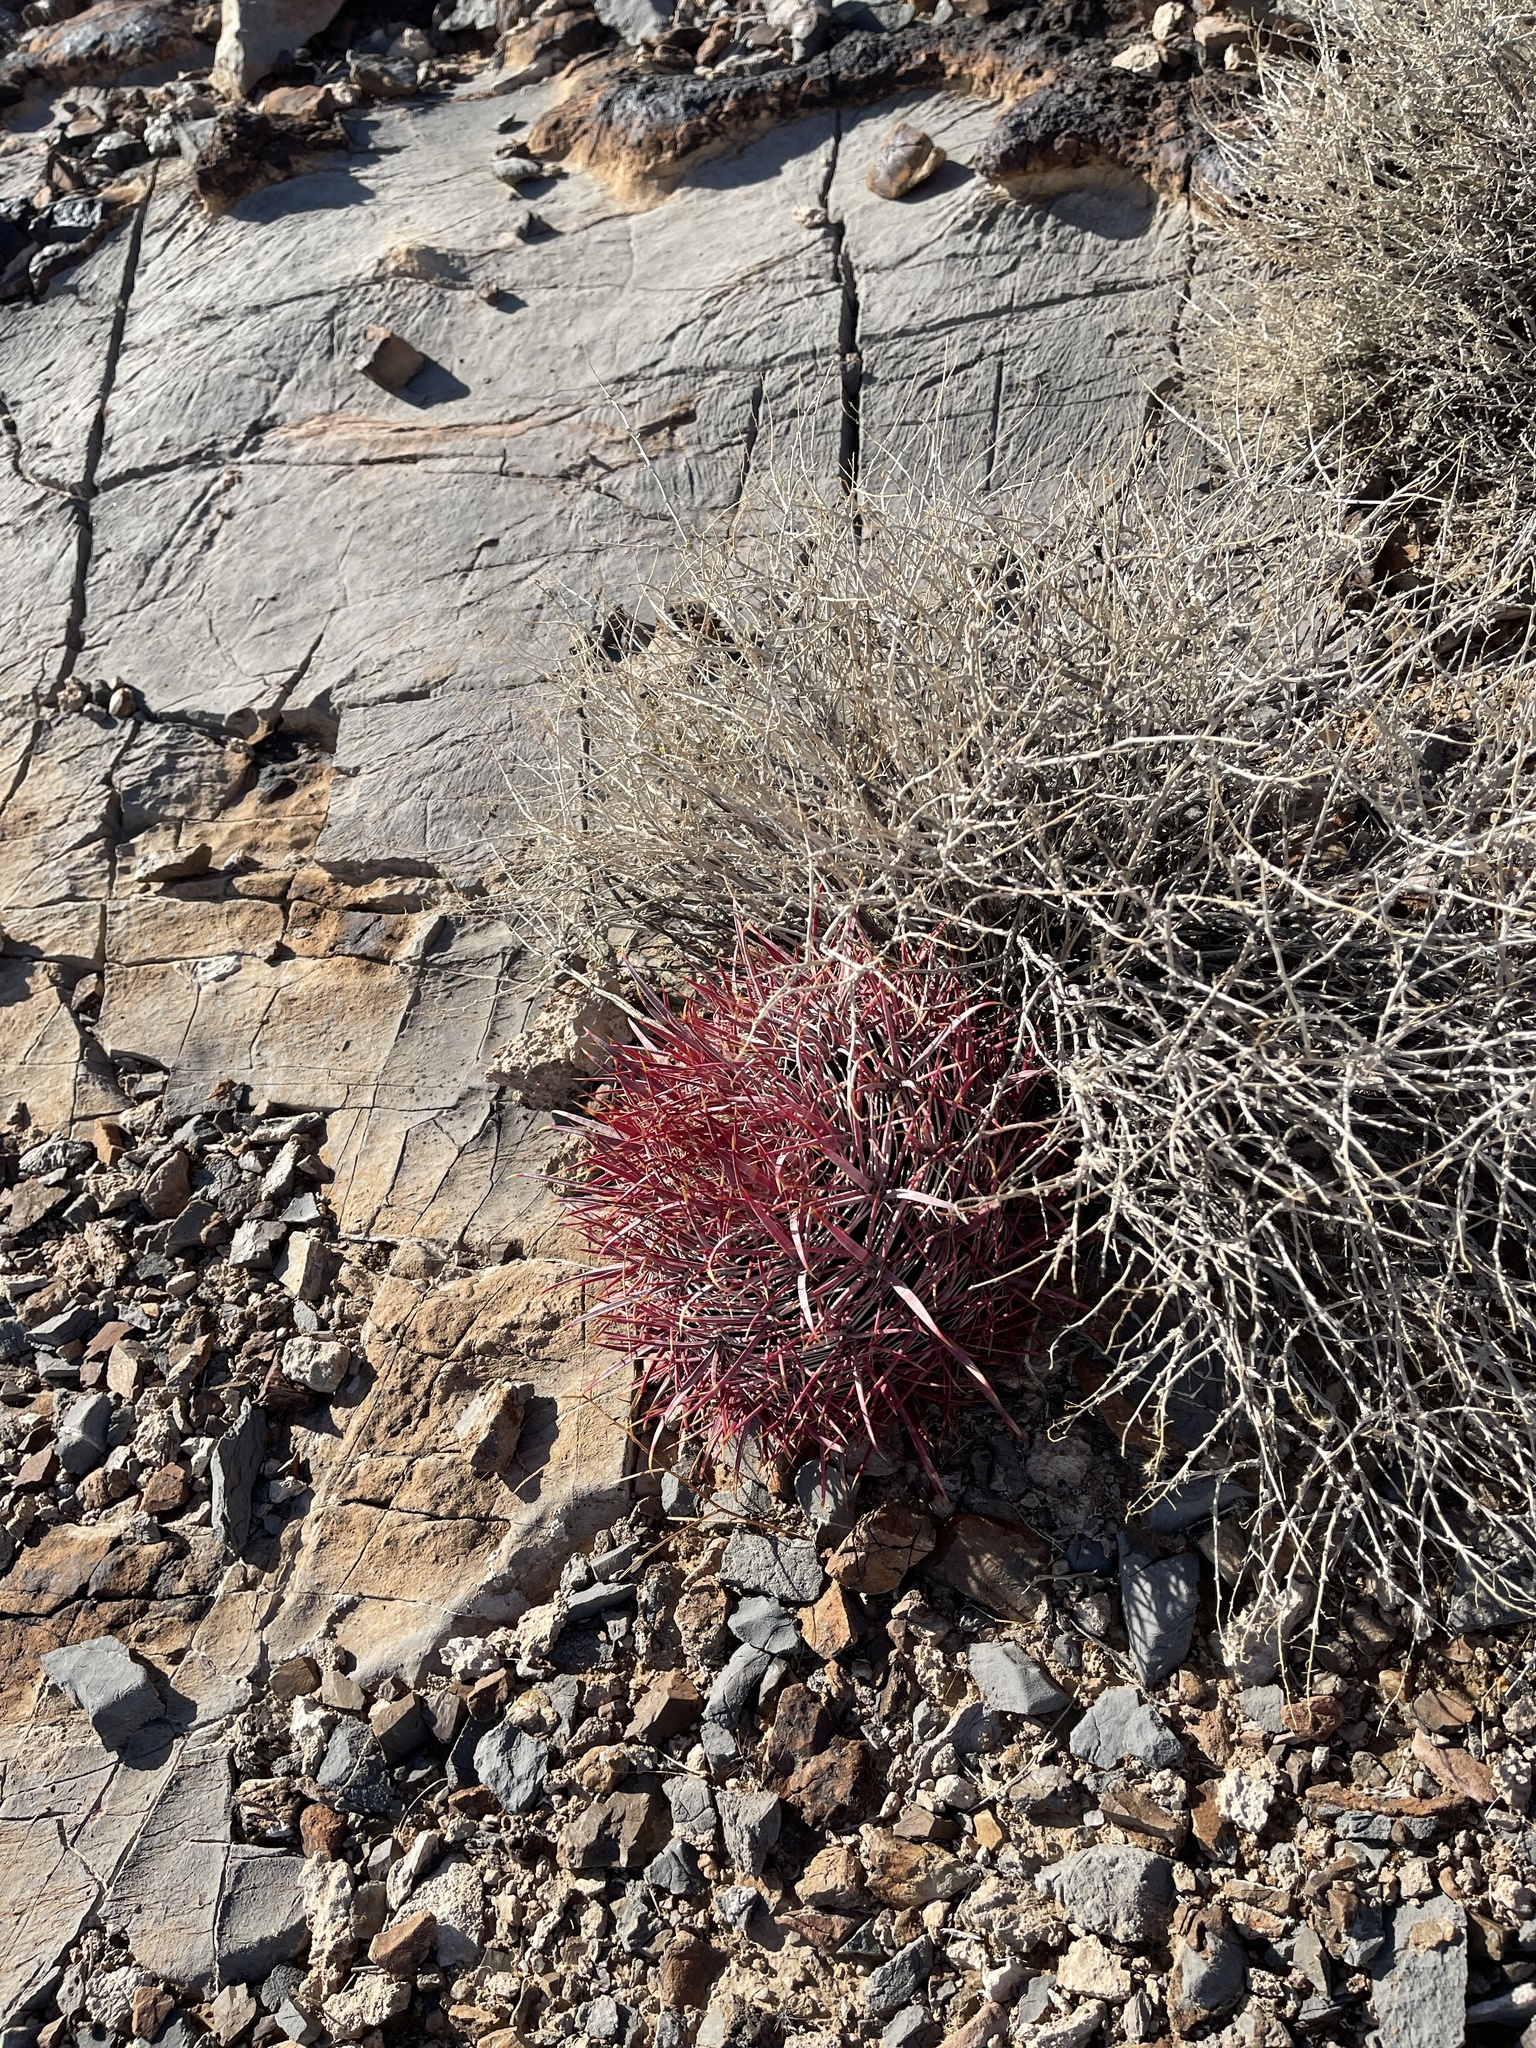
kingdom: Plantae
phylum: Tracheophyta
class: Magnoliopsida
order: Caryophyllales
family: Cactaceae
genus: Ferocactus
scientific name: Ferocactus cylindraceus
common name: California barrel cactus
